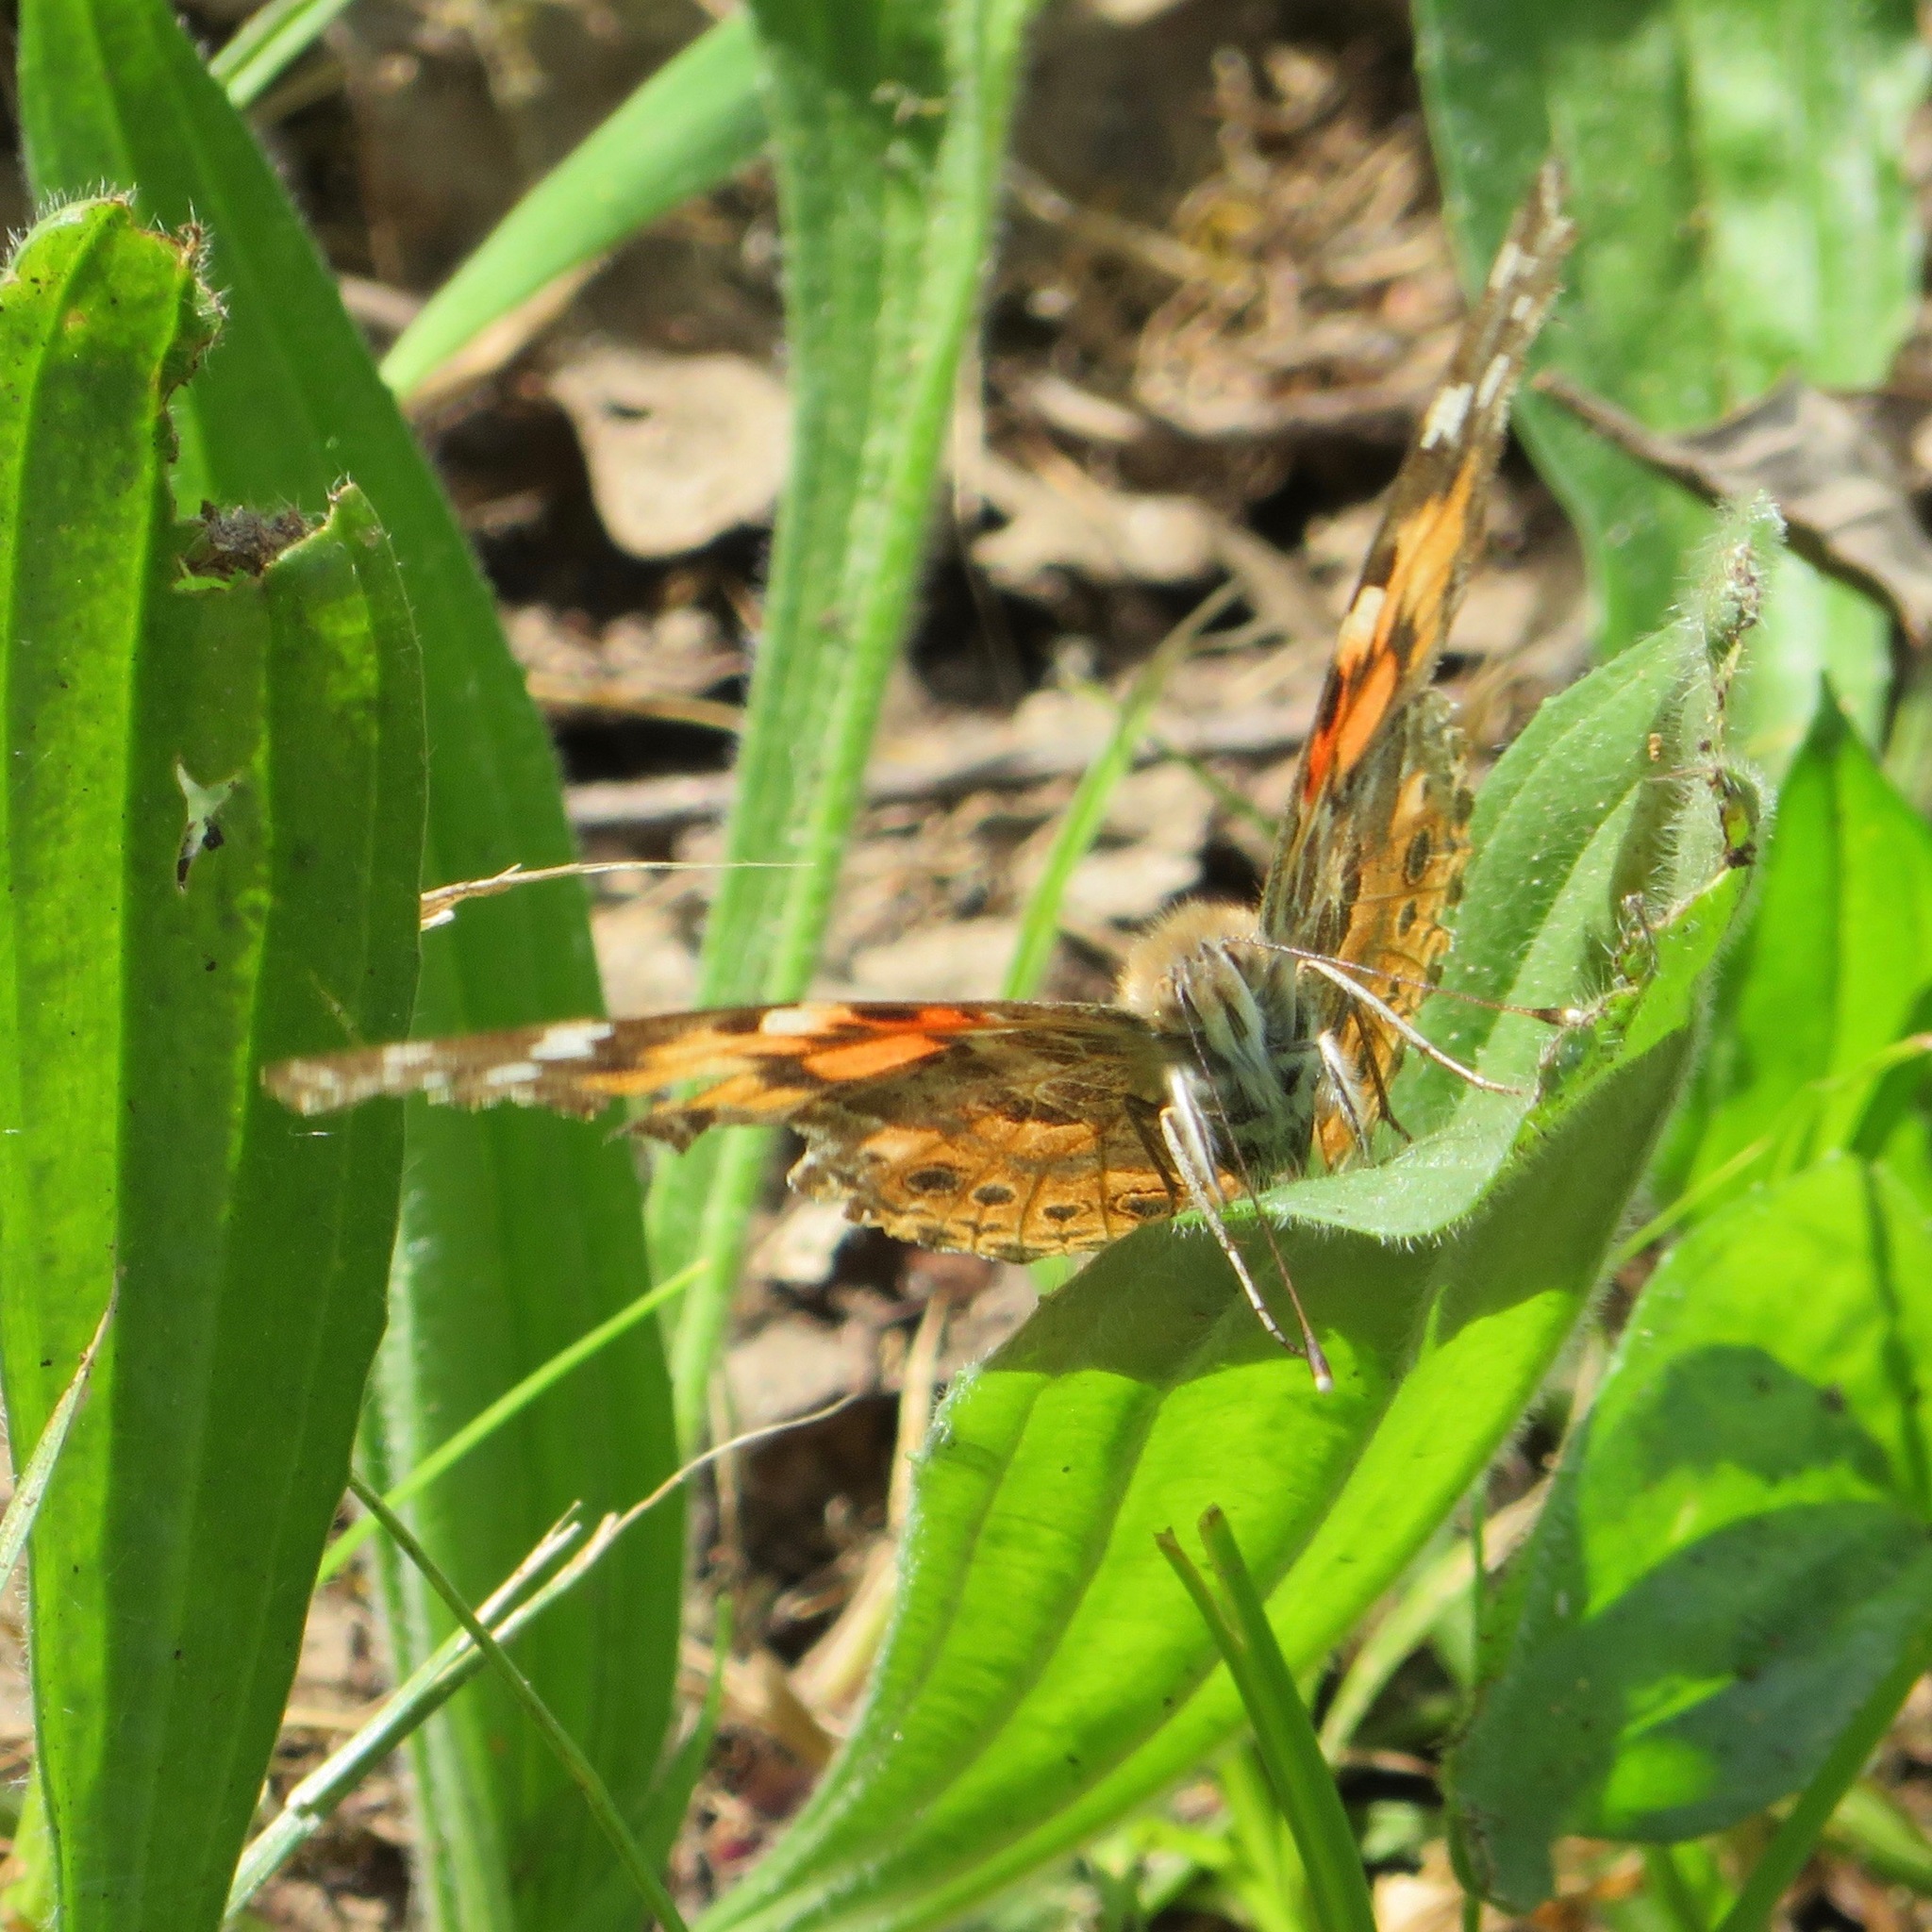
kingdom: Animalia
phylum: Arthropoda
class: Insecta
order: Lepidoptera
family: Nymphalidae
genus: Vanessa
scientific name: Vanessa cardui
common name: Painted lady
